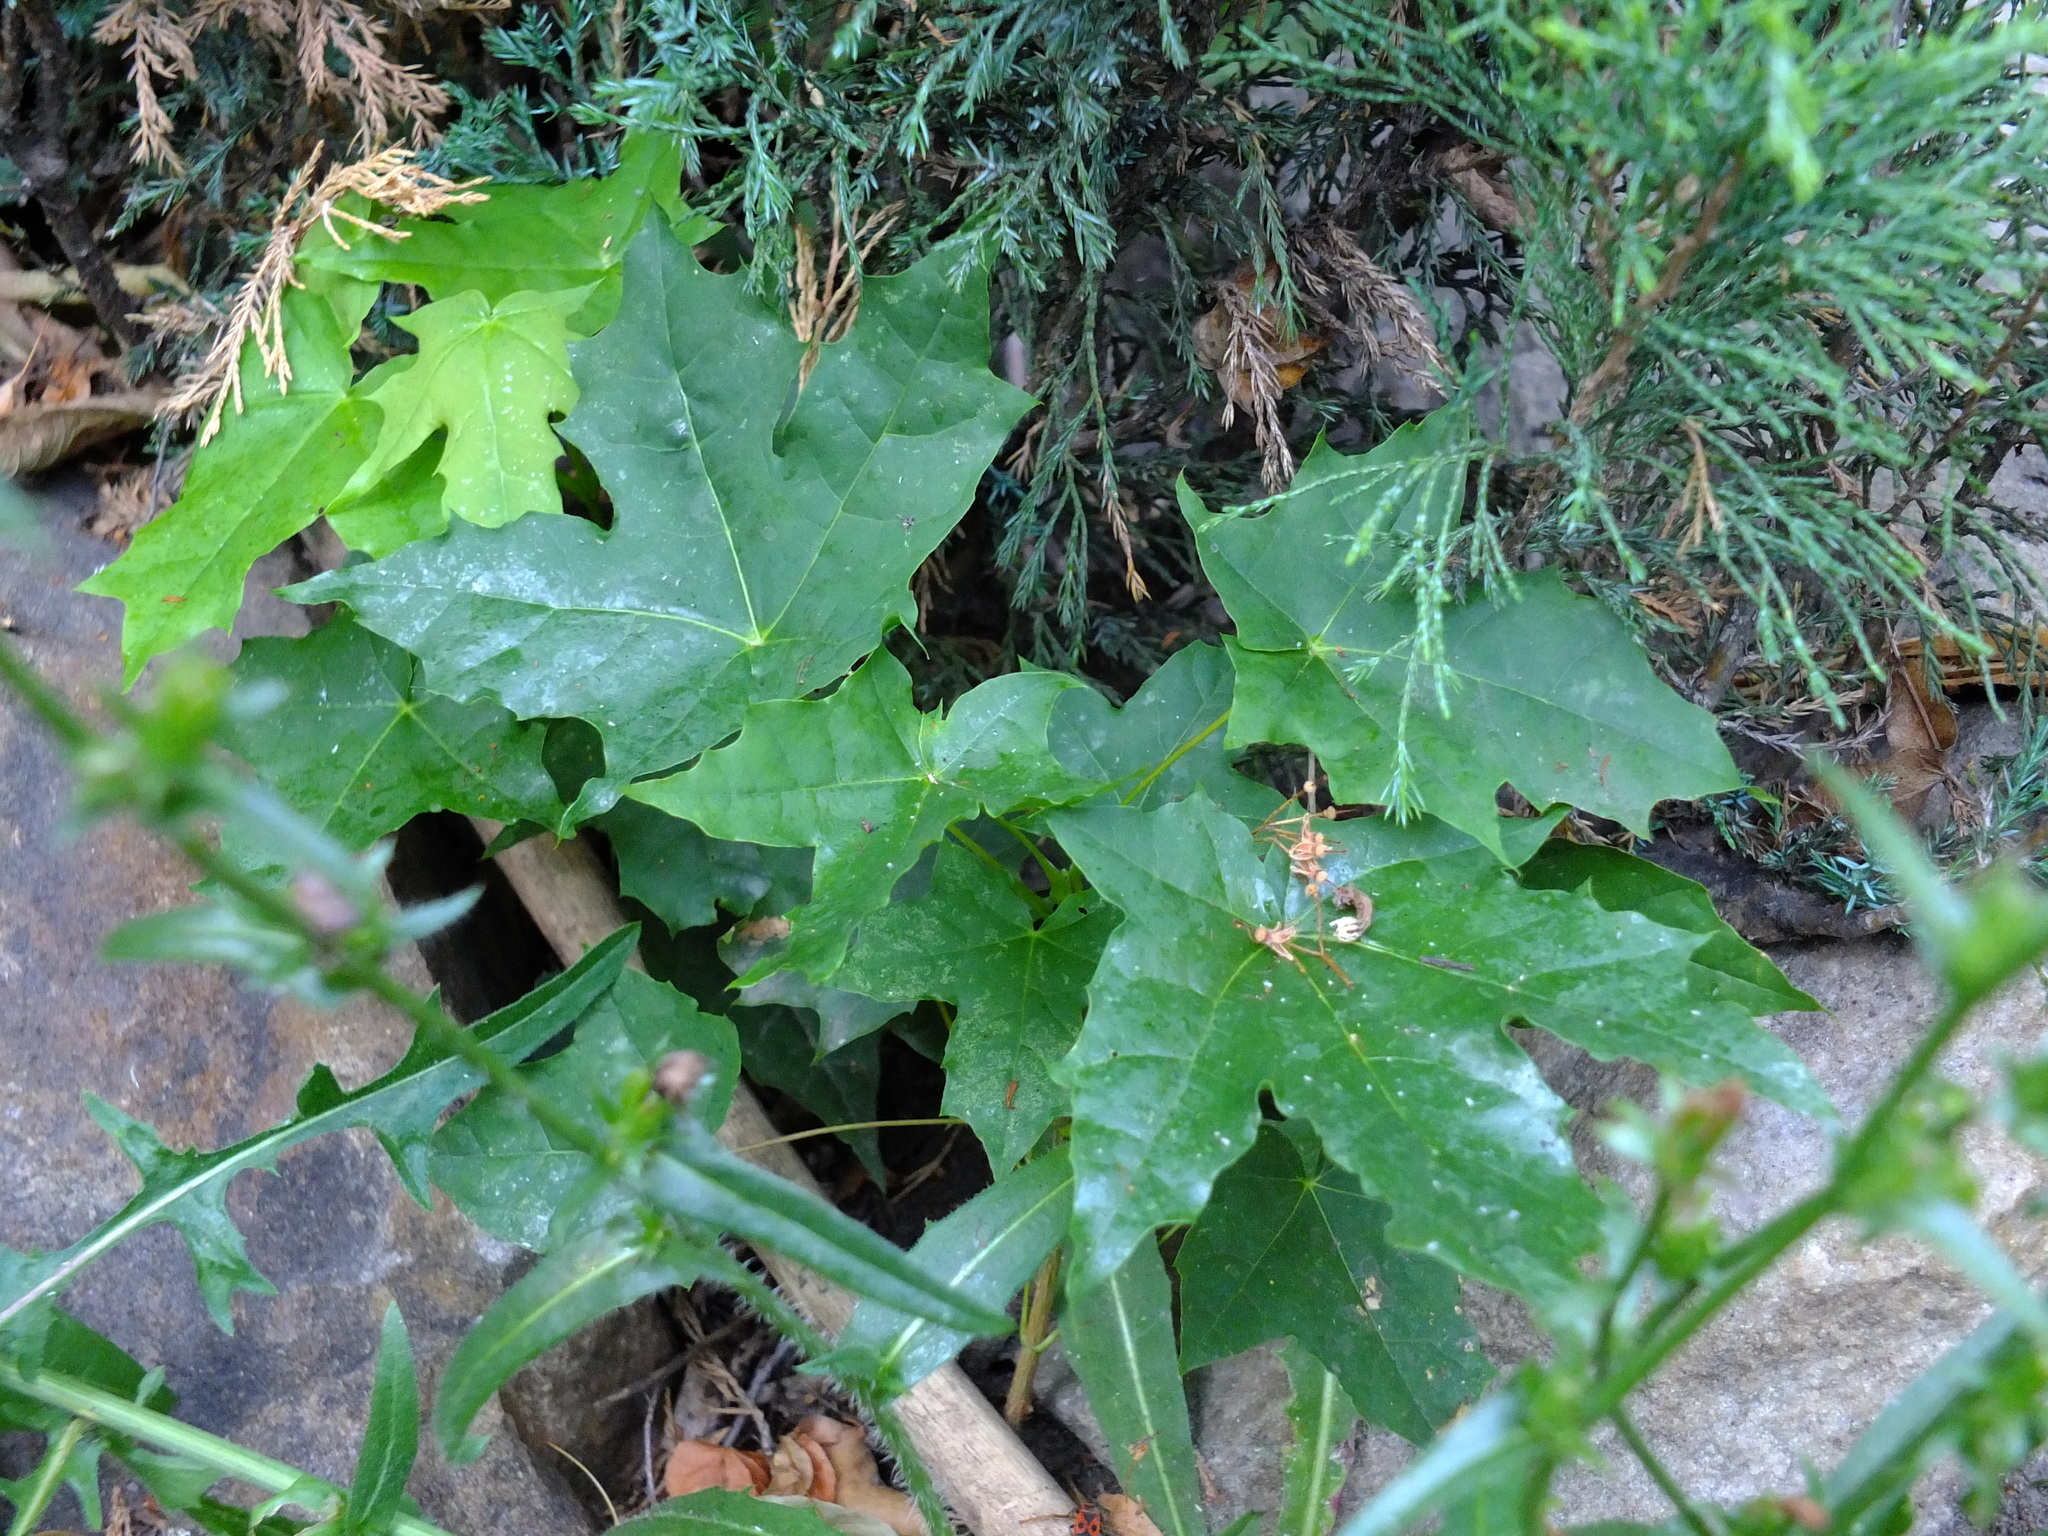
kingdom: Plantae
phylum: Tracheophyta
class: Magnoliopsida
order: Sapindales
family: Sapindaceae
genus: Acer
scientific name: Acer platanoides
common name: Norway maple
